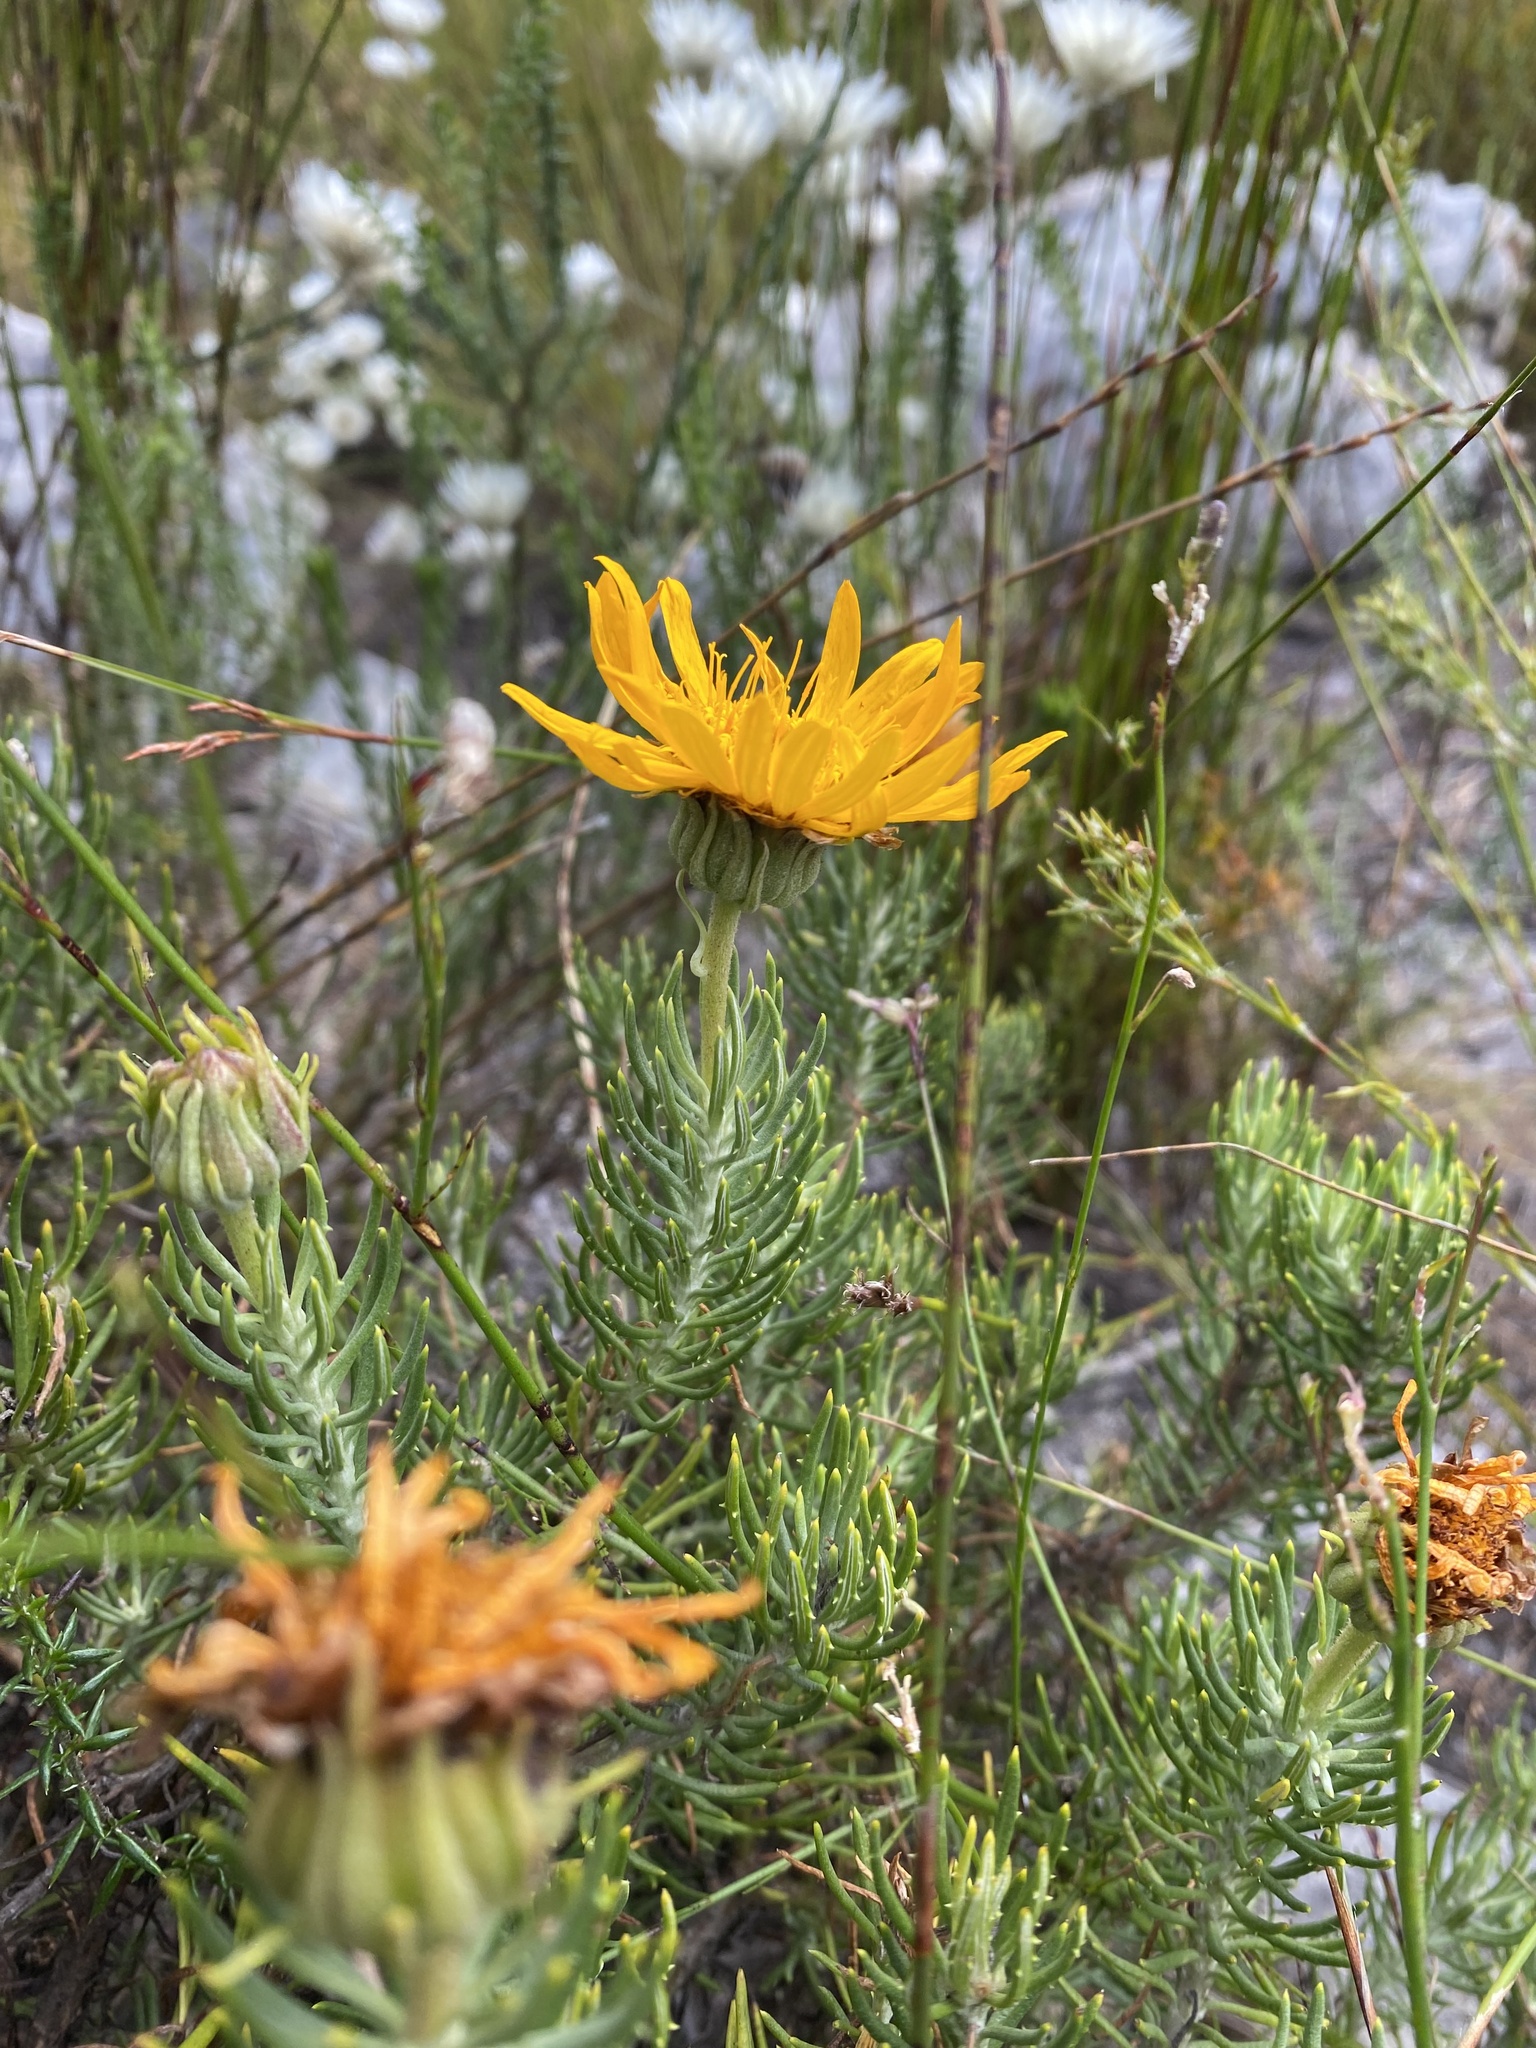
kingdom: Plantae
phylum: Tracheophyta
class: Magnoliopsida
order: Asterales
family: Asteraceae
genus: Heterolepis
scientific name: Heterolepis aliena
